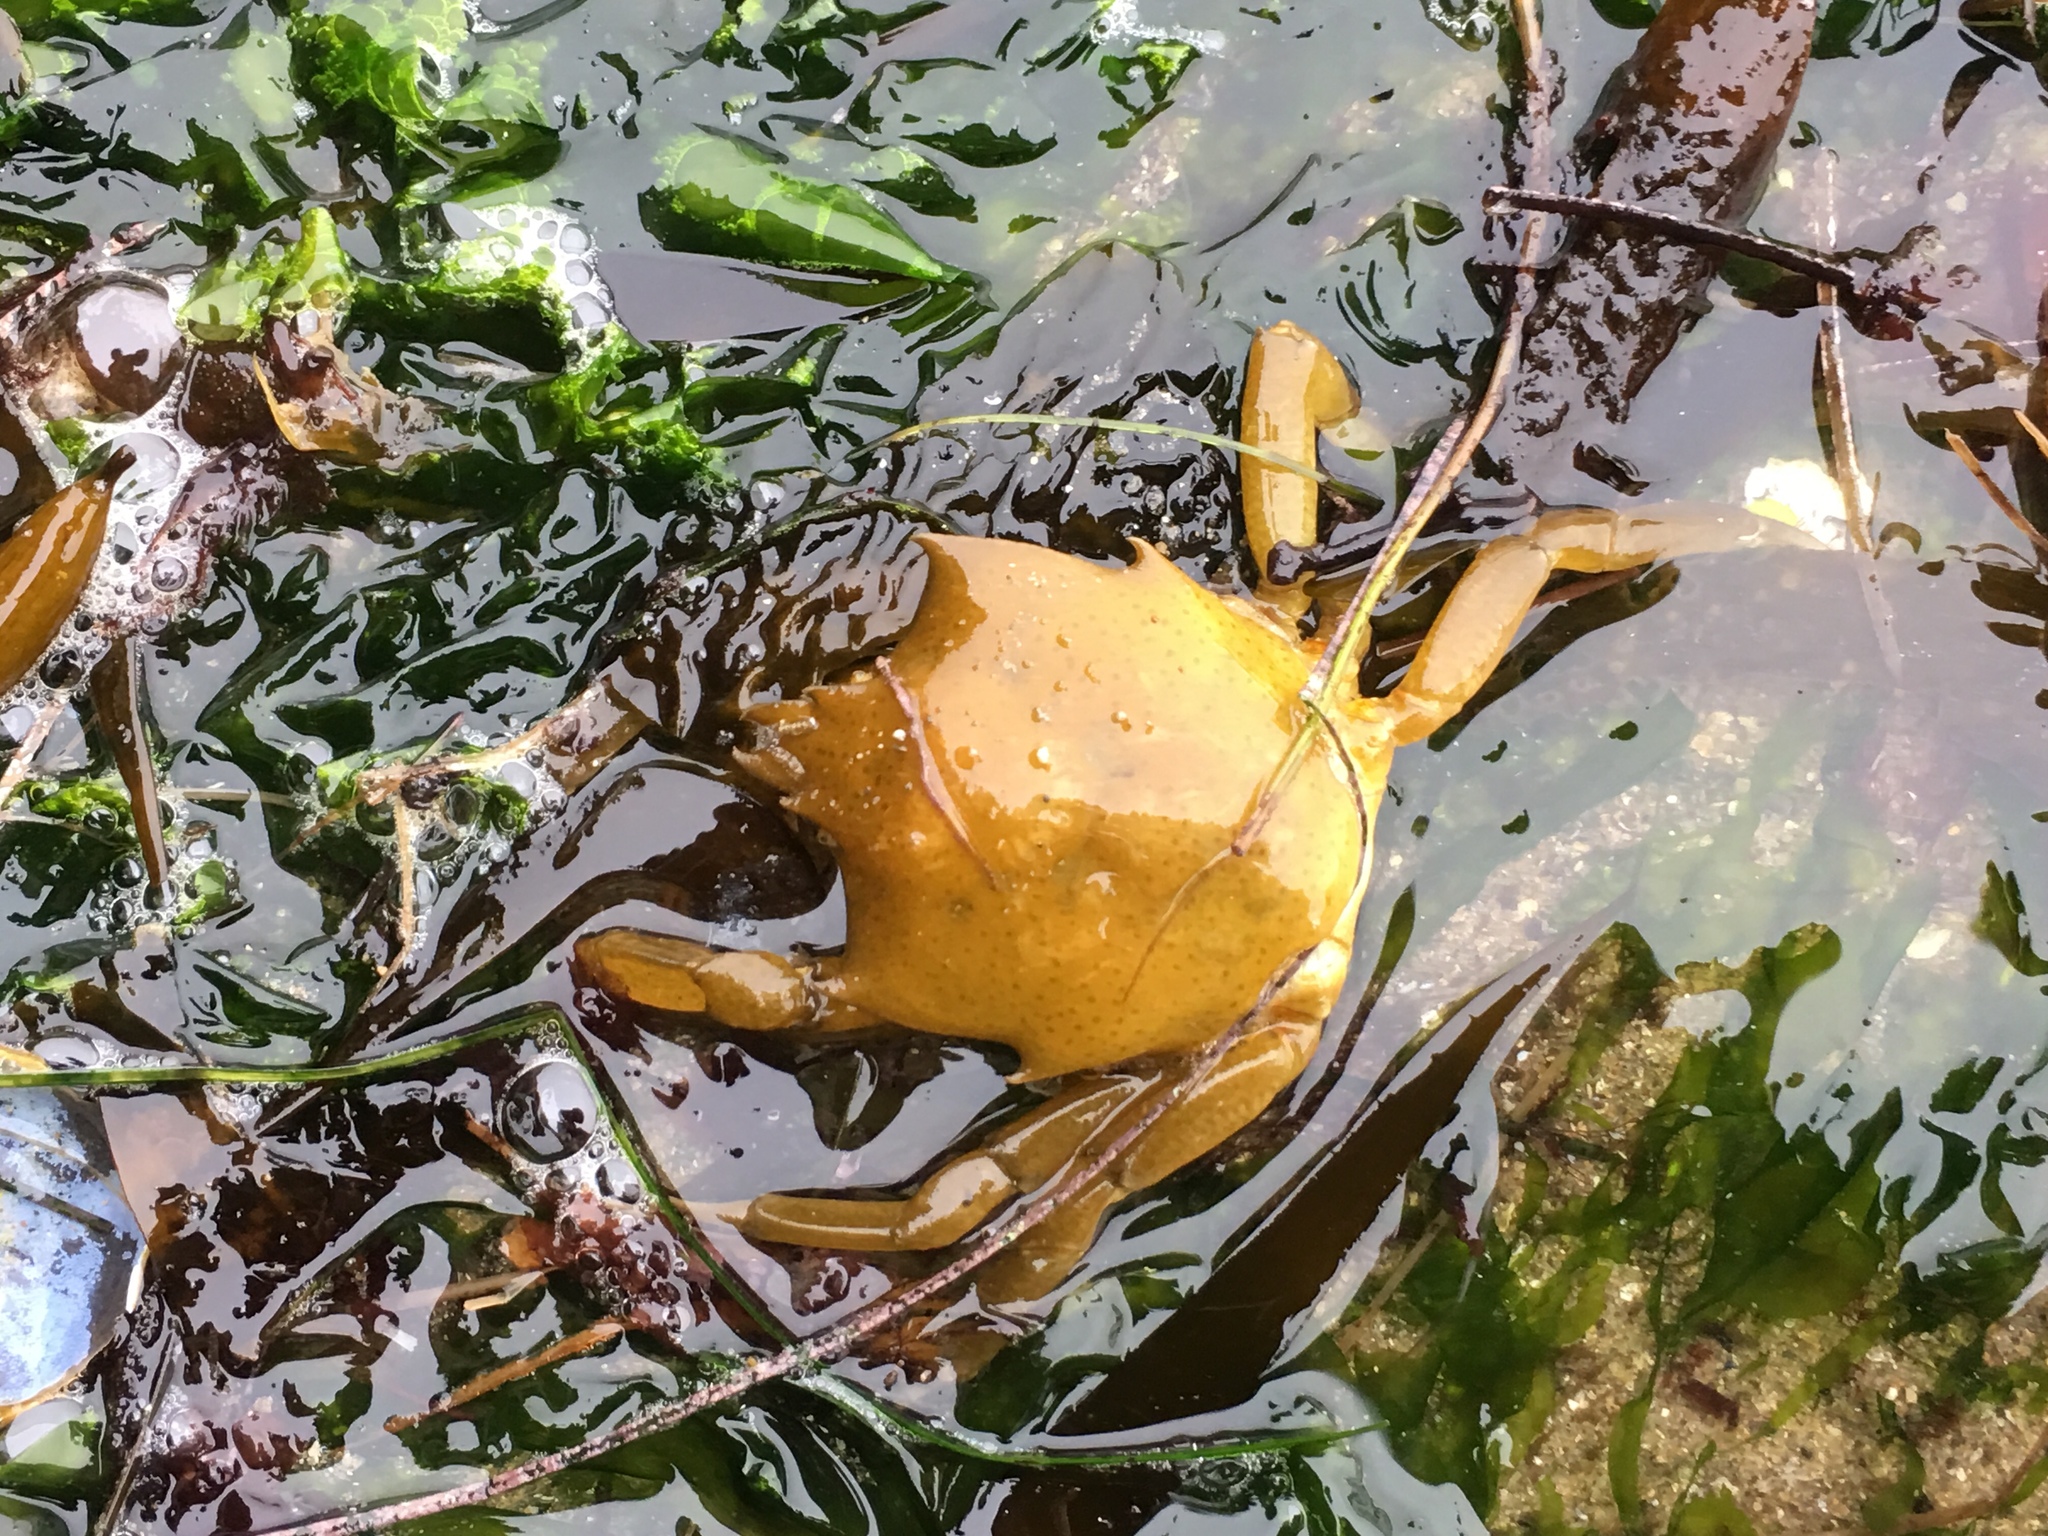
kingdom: Animalia
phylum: Arthropoda
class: Malacostraca
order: Decapoda
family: Epialtidae
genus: Pugettia
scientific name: Pugettia producta
